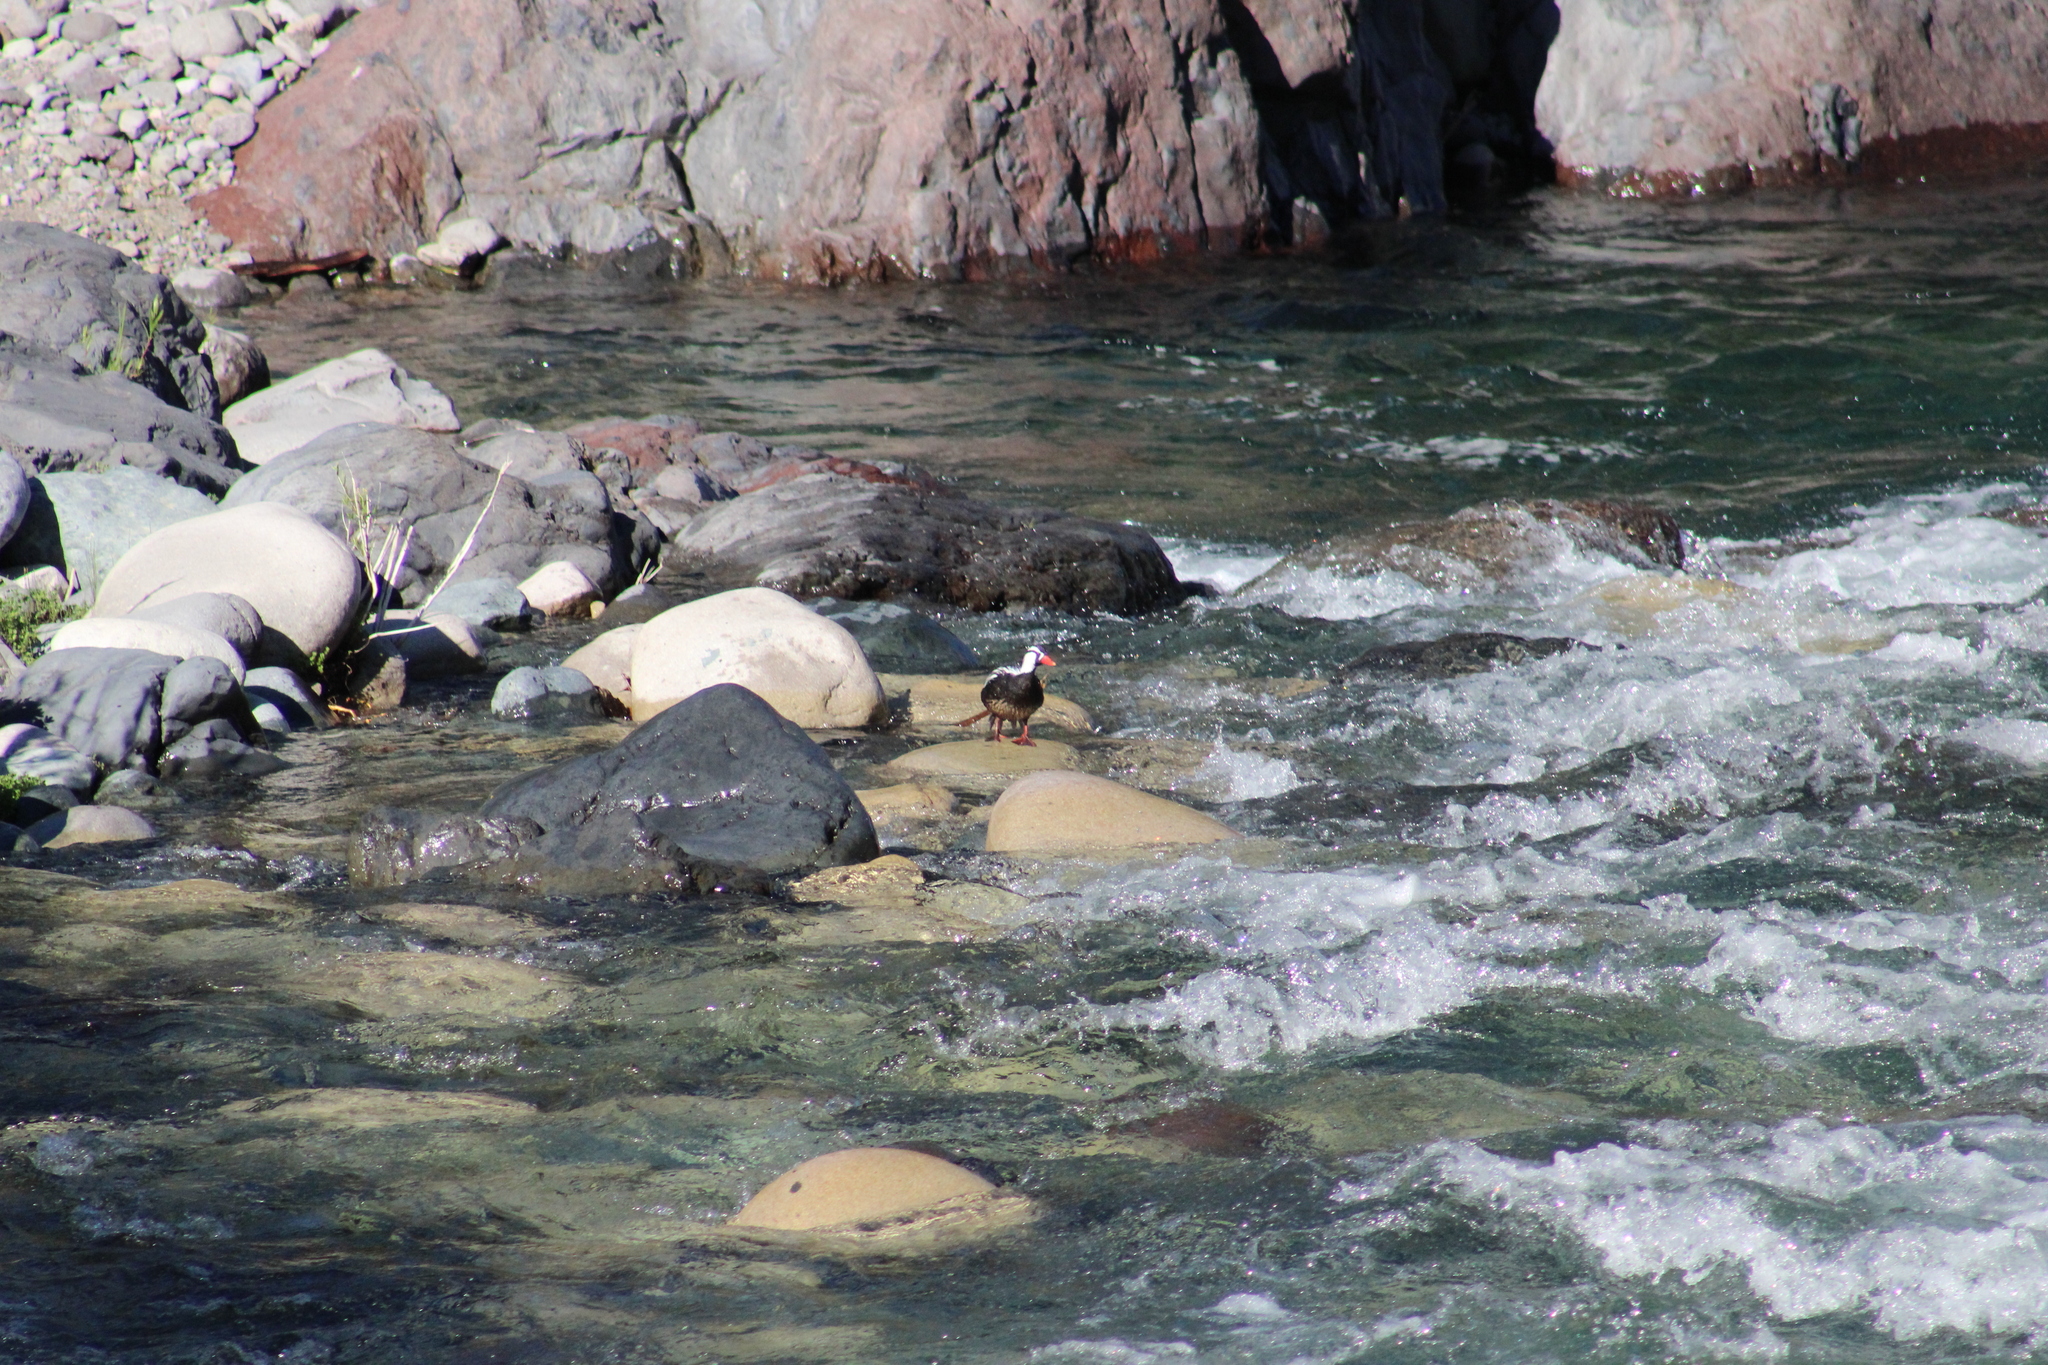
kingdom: Animalia
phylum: Chordata
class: Aves
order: Anseriformes
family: Anatidae
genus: Merganetta
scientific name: Merganetta armata
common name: Torrent duck
